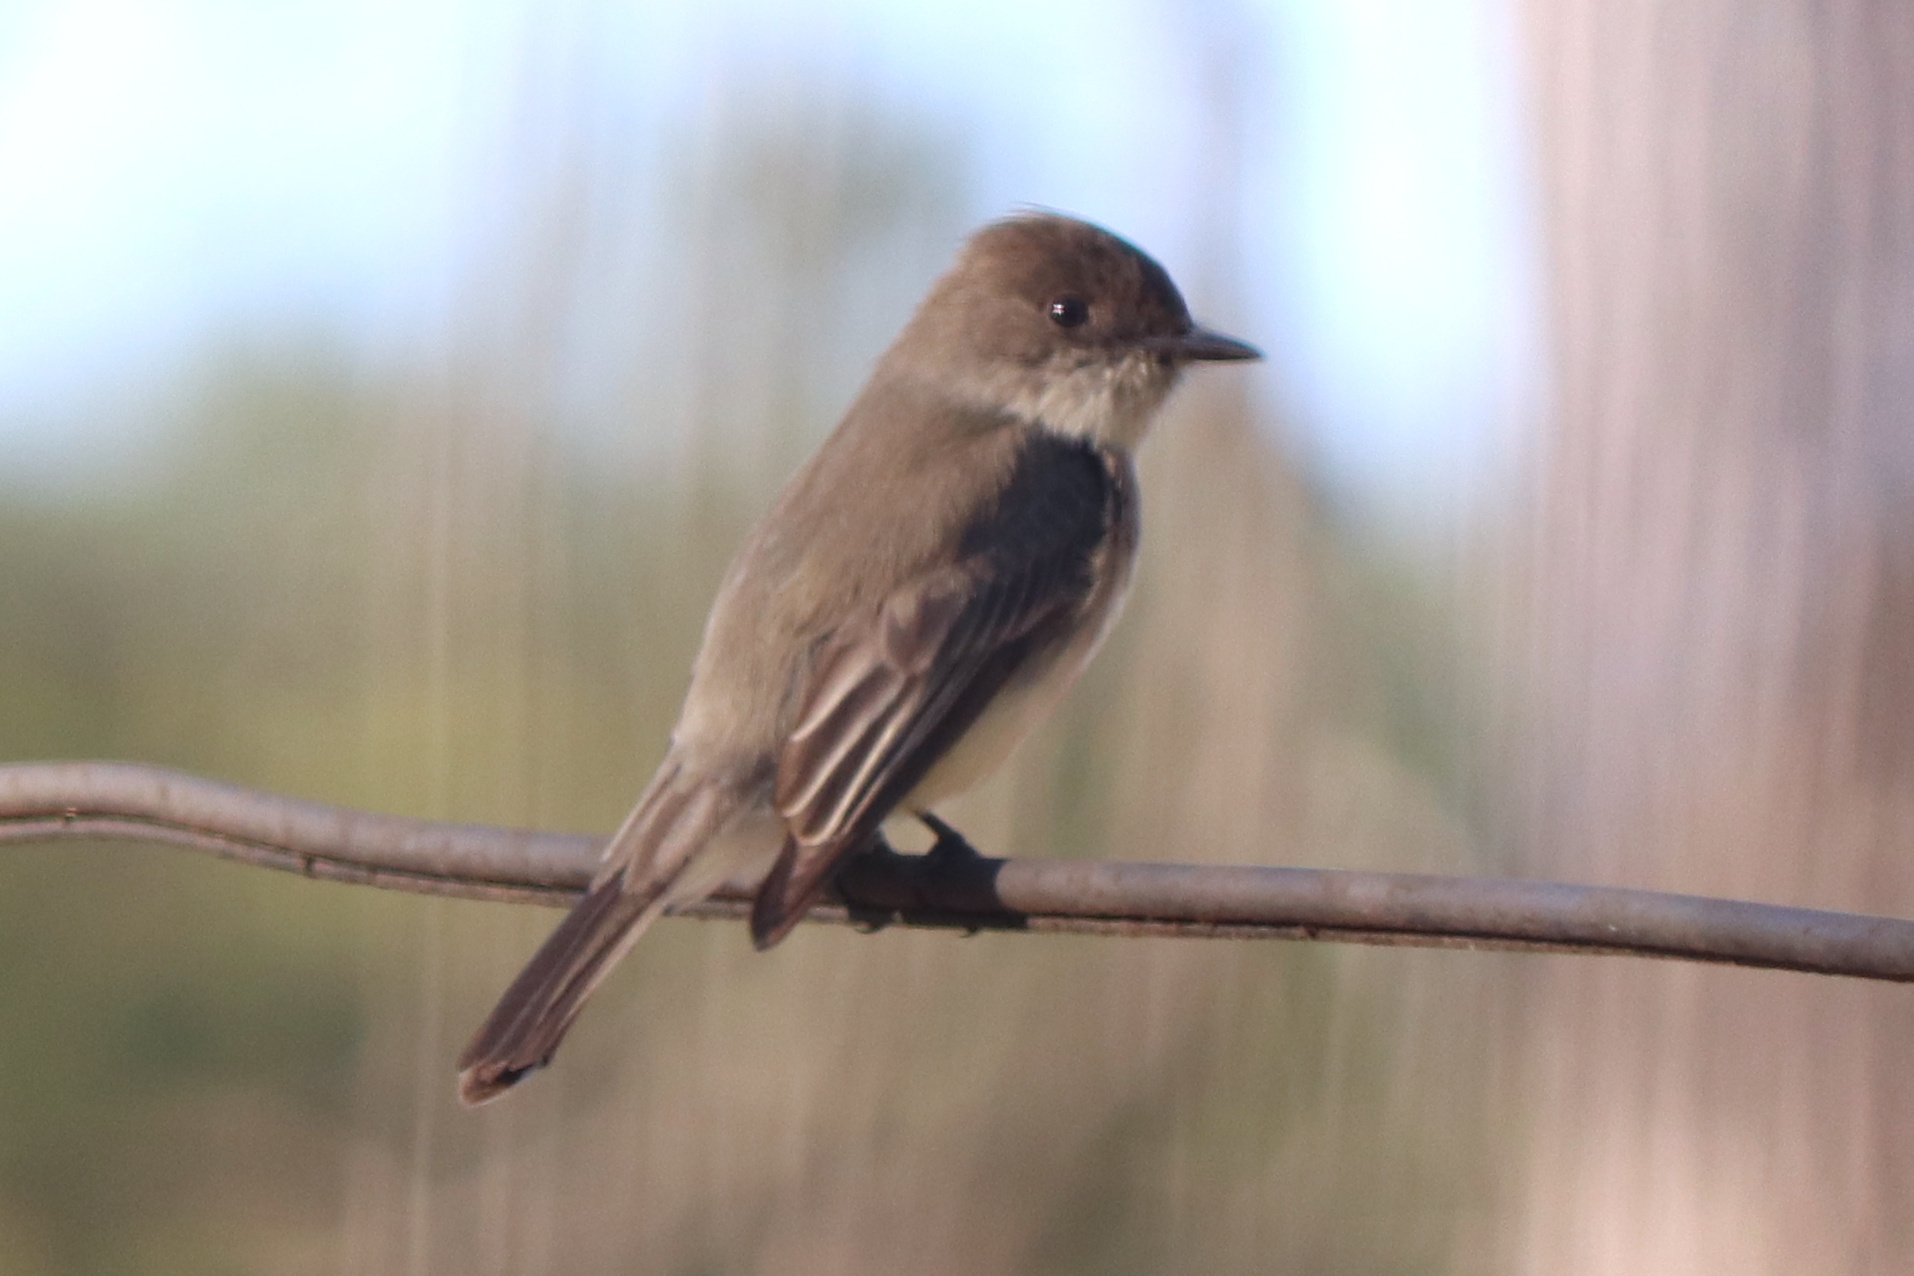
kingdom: Animalia
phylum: Chordata
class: Aves
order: Passeriformes
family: Tyrannidae
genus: Sayornis
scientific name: Sayornis phoebe
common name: Eastern phoebe
